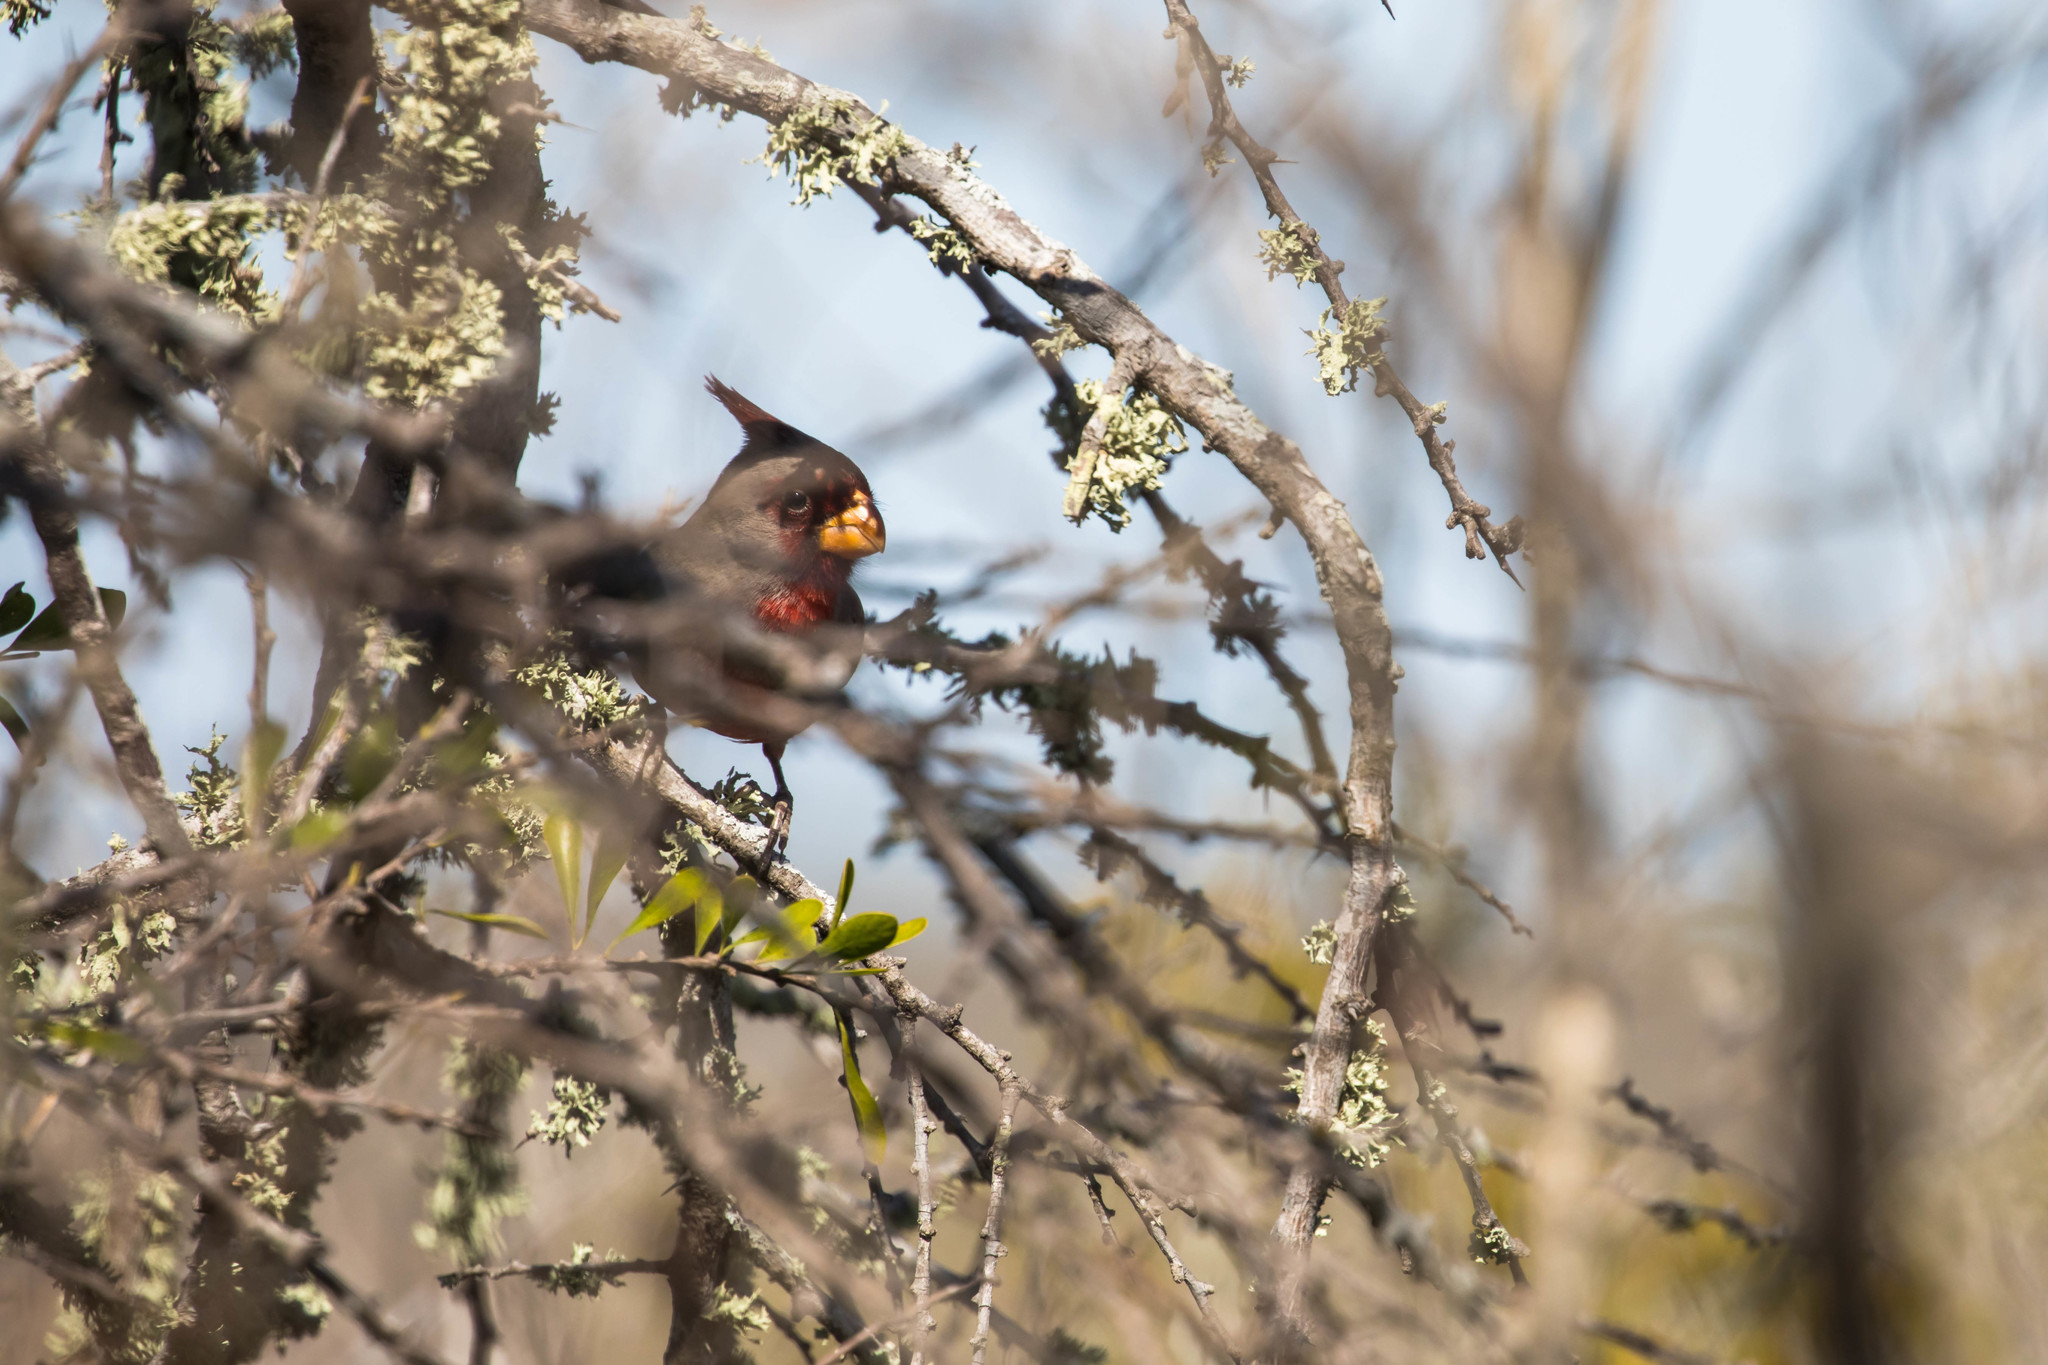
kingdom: Animalia
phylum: Chordata
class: Aves
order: Passeriformes
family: Cardinalidae
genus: Cardinalis
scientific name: Cardinalis sinuatus
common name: Pyrrhuloxia
